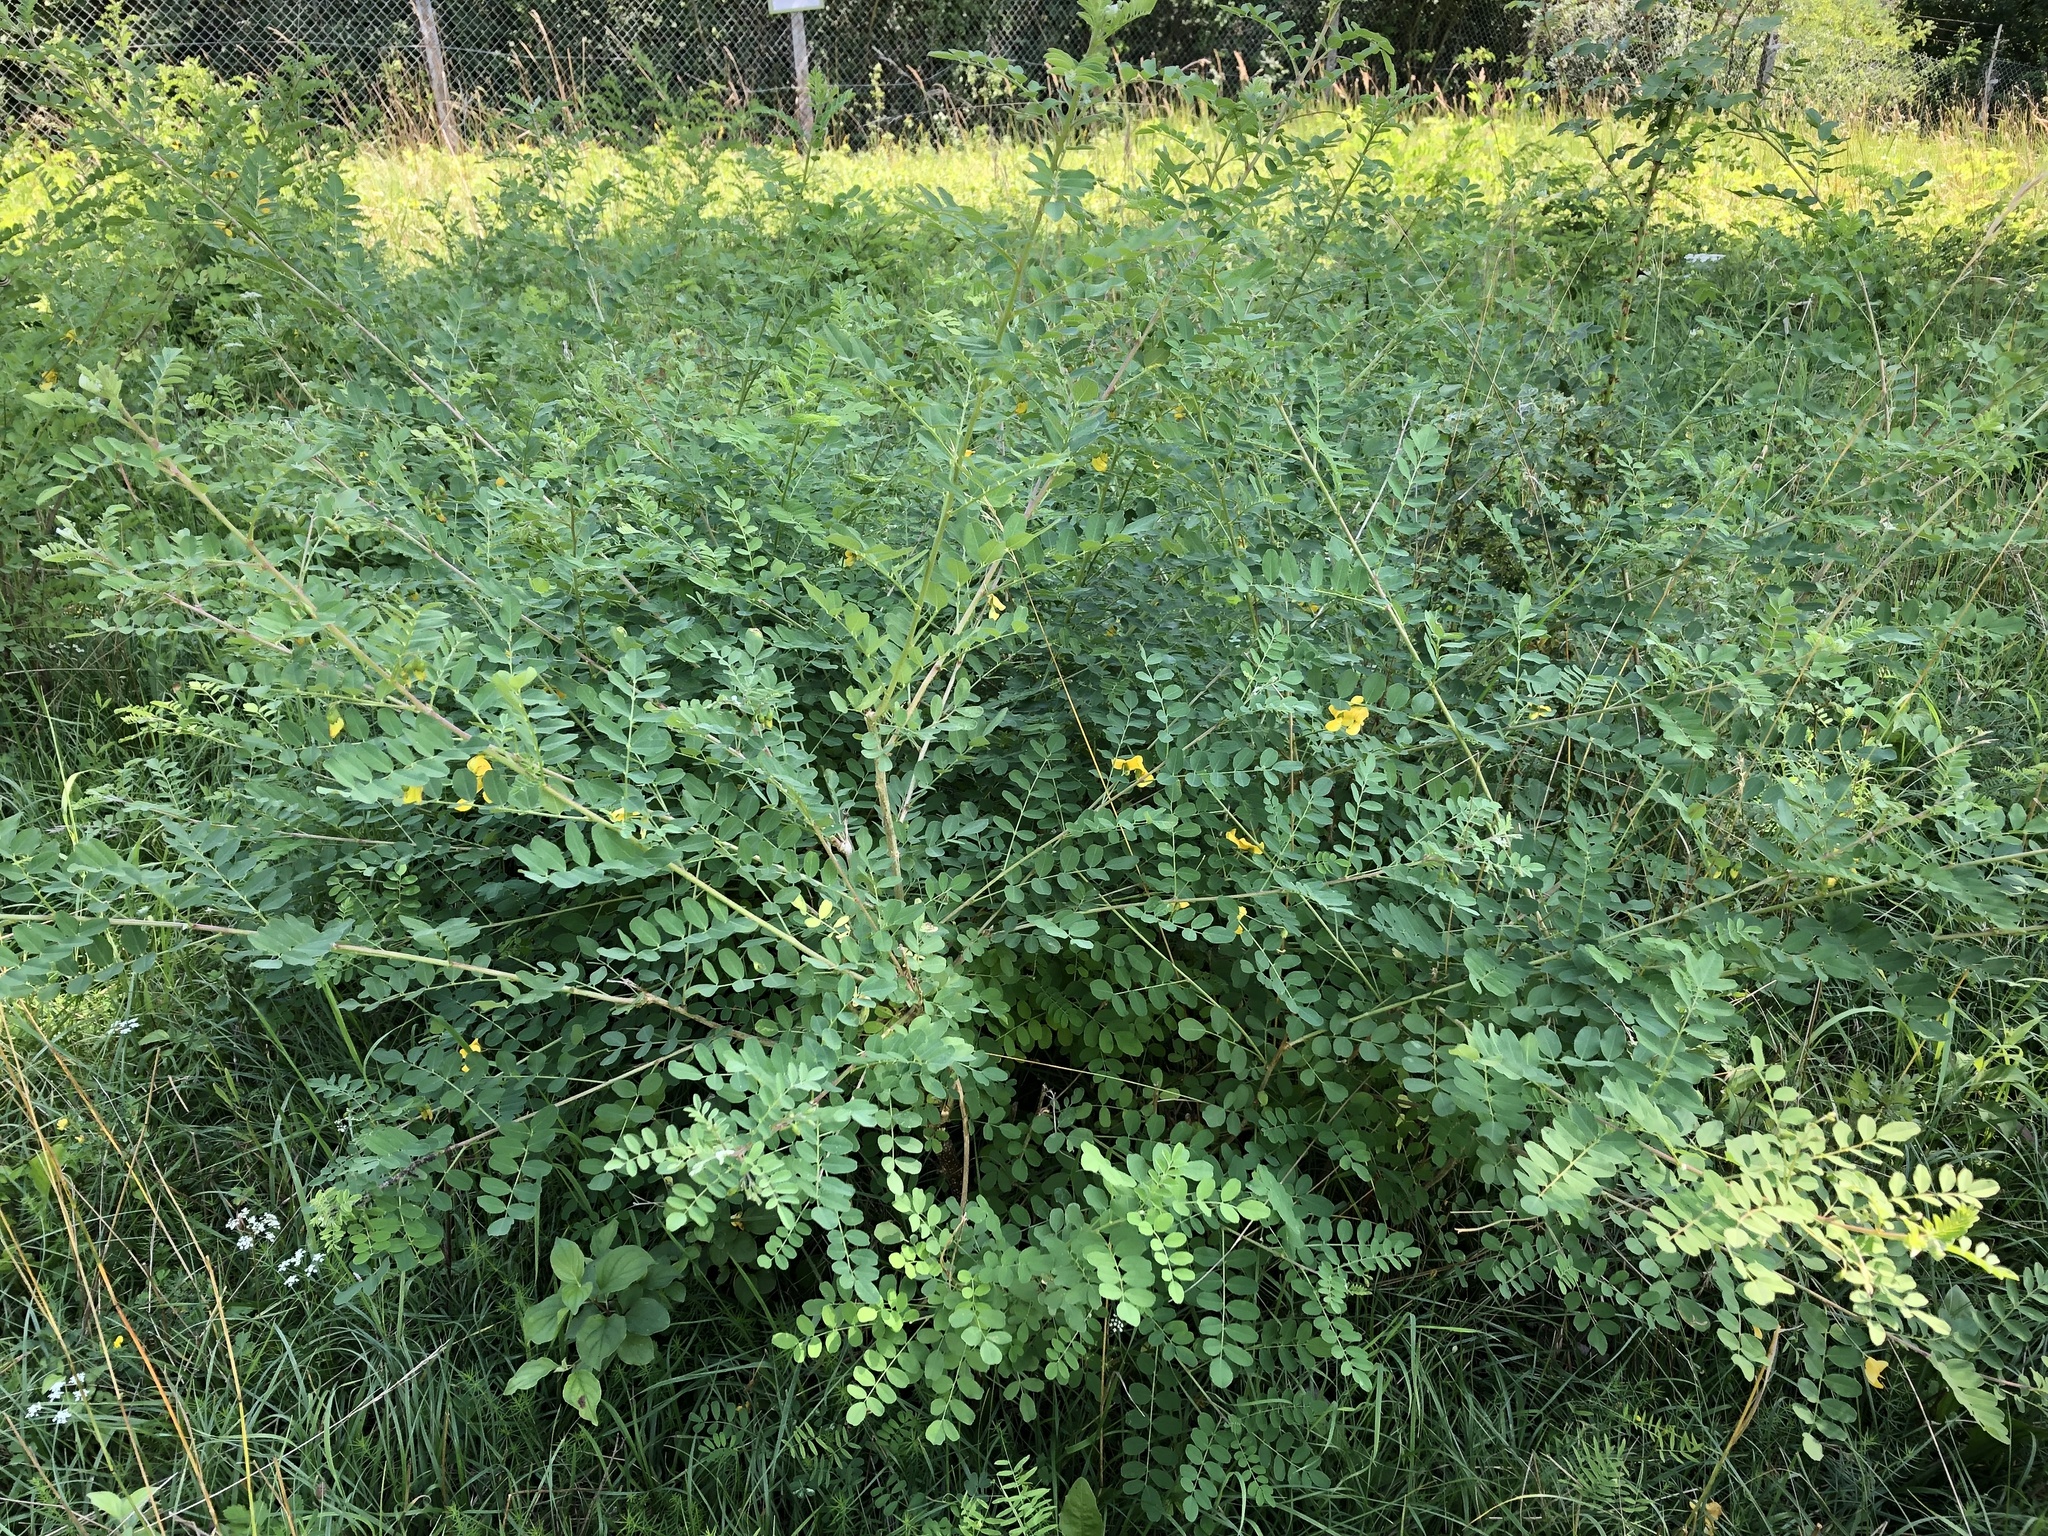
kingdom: Plantae
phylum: Tracheophyta
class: Magnoliopsida
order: Fabales
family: Fabaceae
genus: Colutea
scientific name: Colutea arborescens
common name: Bladder-senna
